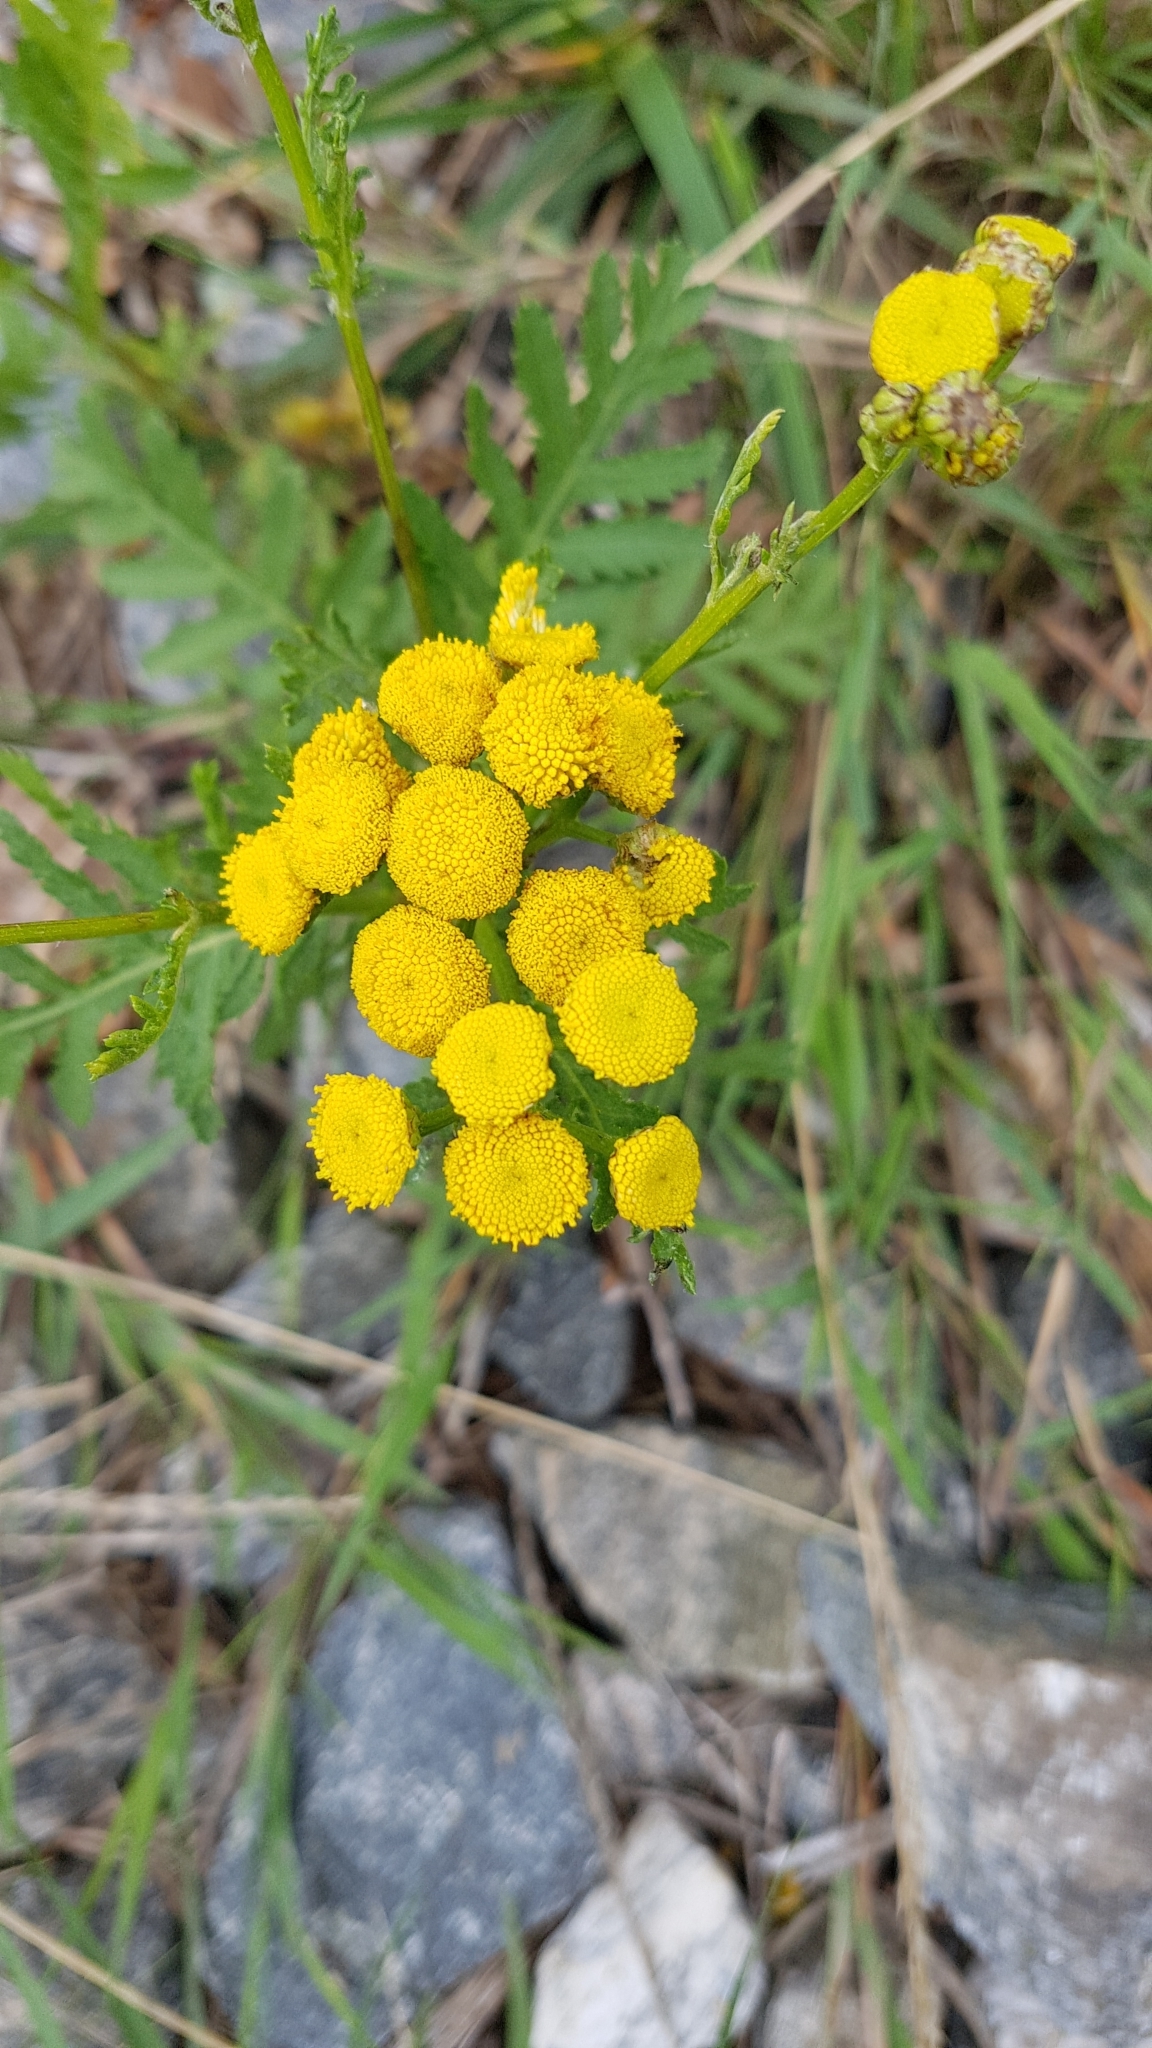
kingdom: Plantae
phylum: Tracheophyta
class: Magnoliopsida
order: Asterales
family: Asteraceae
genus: Tanacetum
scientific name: Tanacetum vulgare
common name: Common tansy
